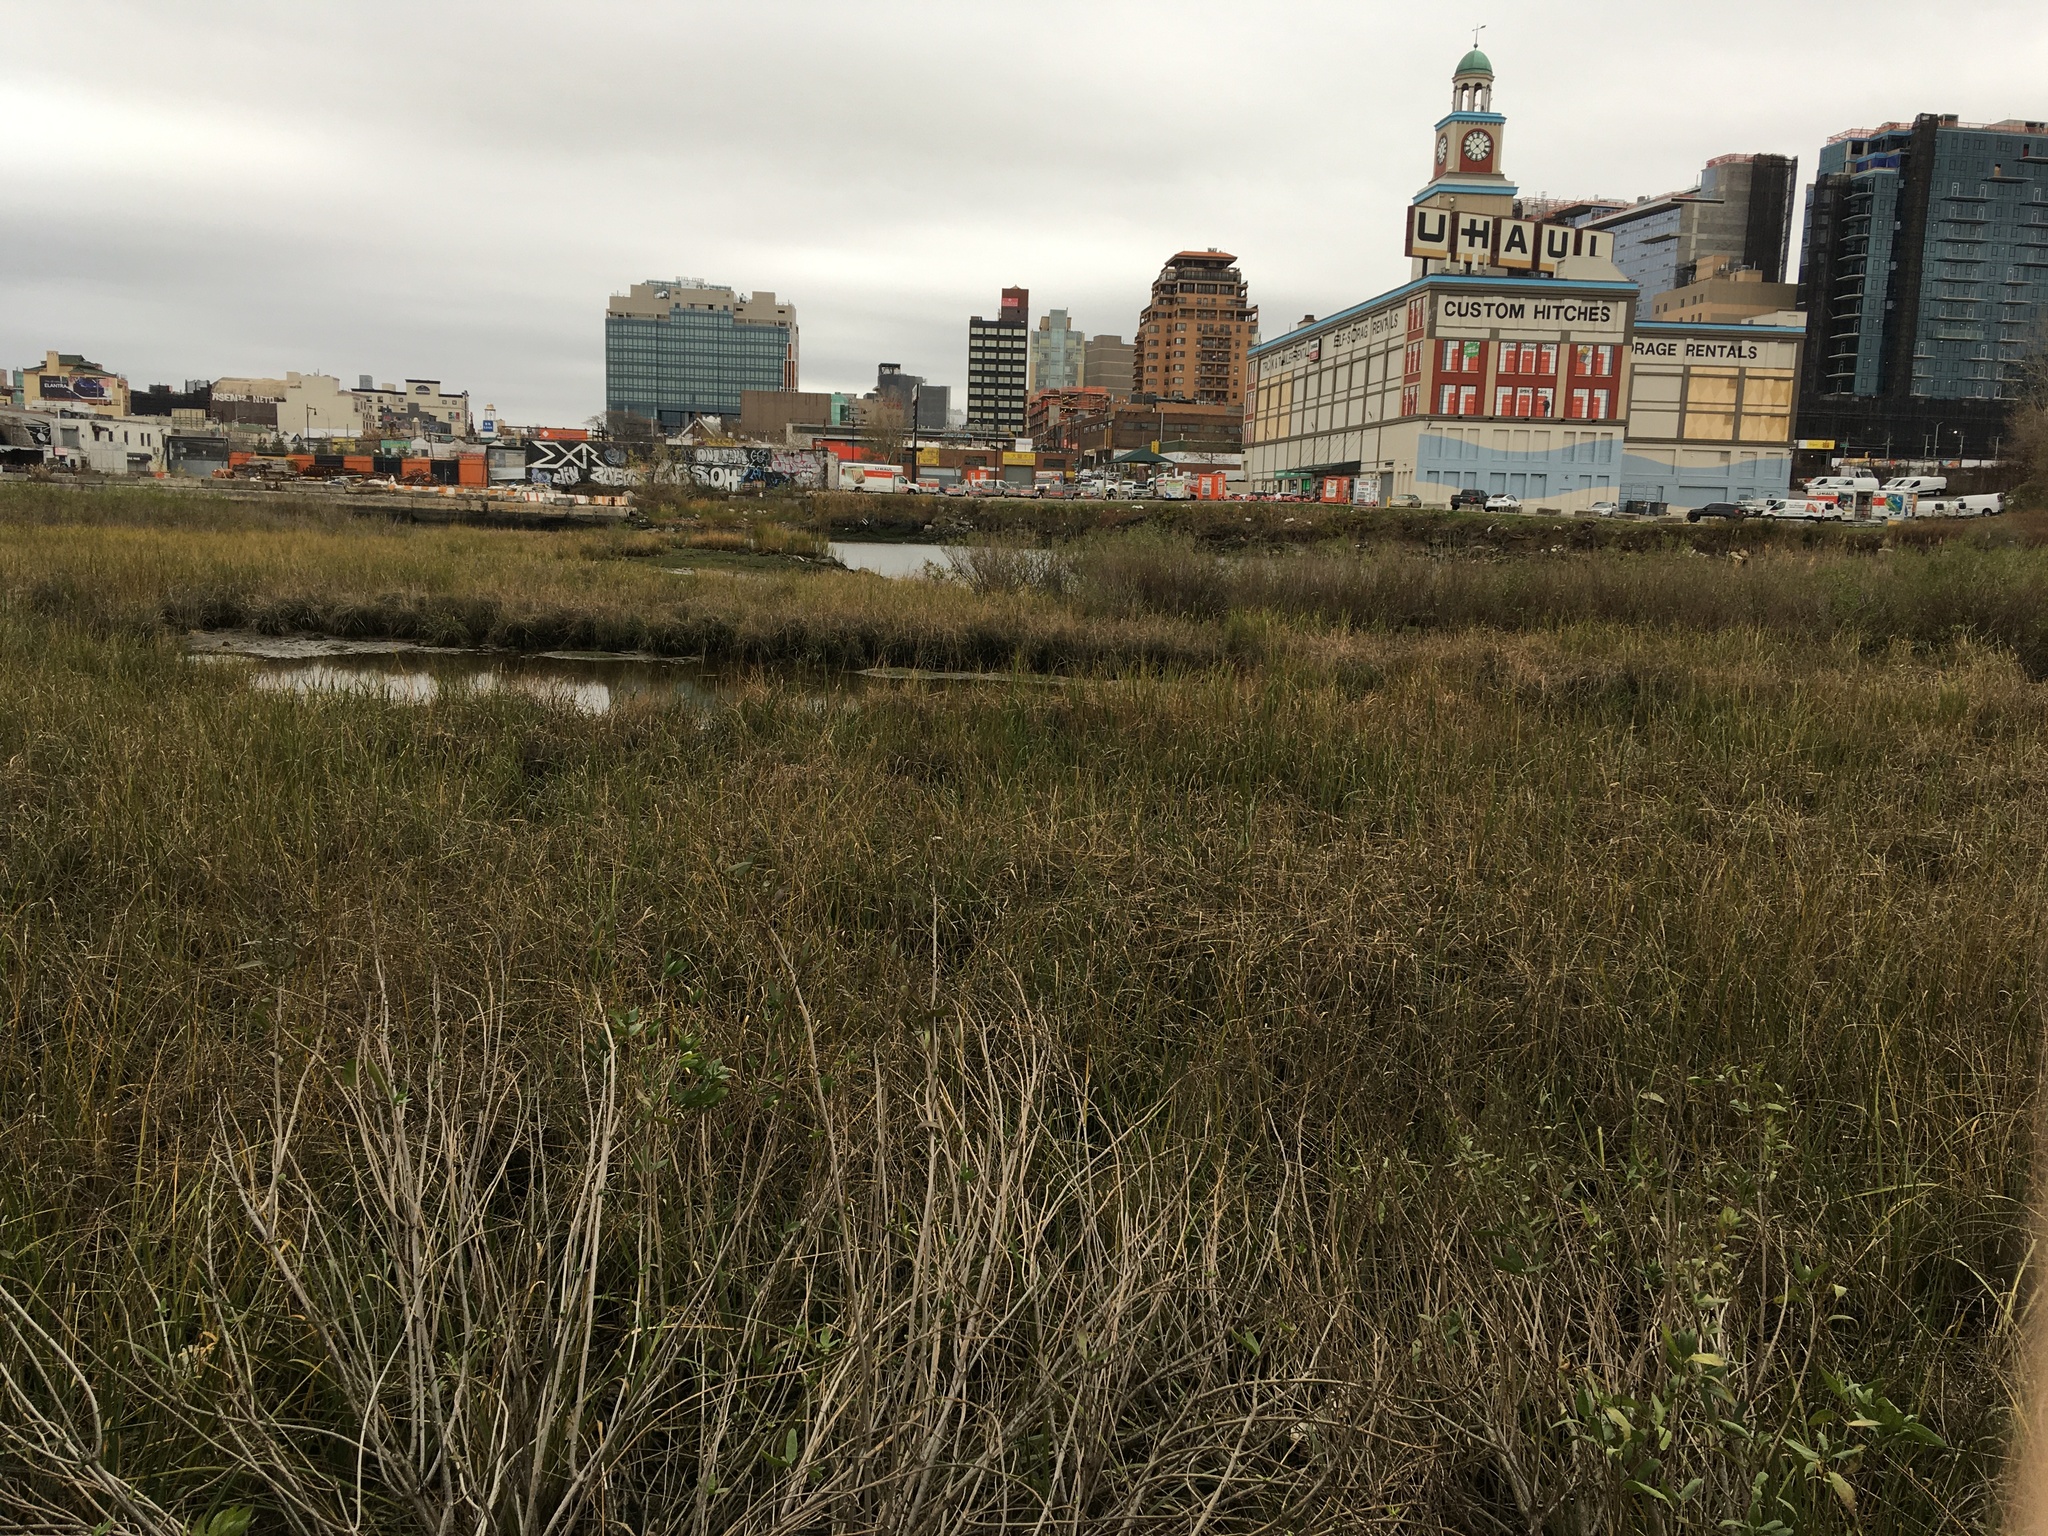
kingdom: Plantae
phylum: Tracheophyta
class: Liliopsida
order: Poales
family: Poaceae
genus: Sporobolus
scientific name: Sporobolus alterniflorus
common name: Atlantic cordgrass
